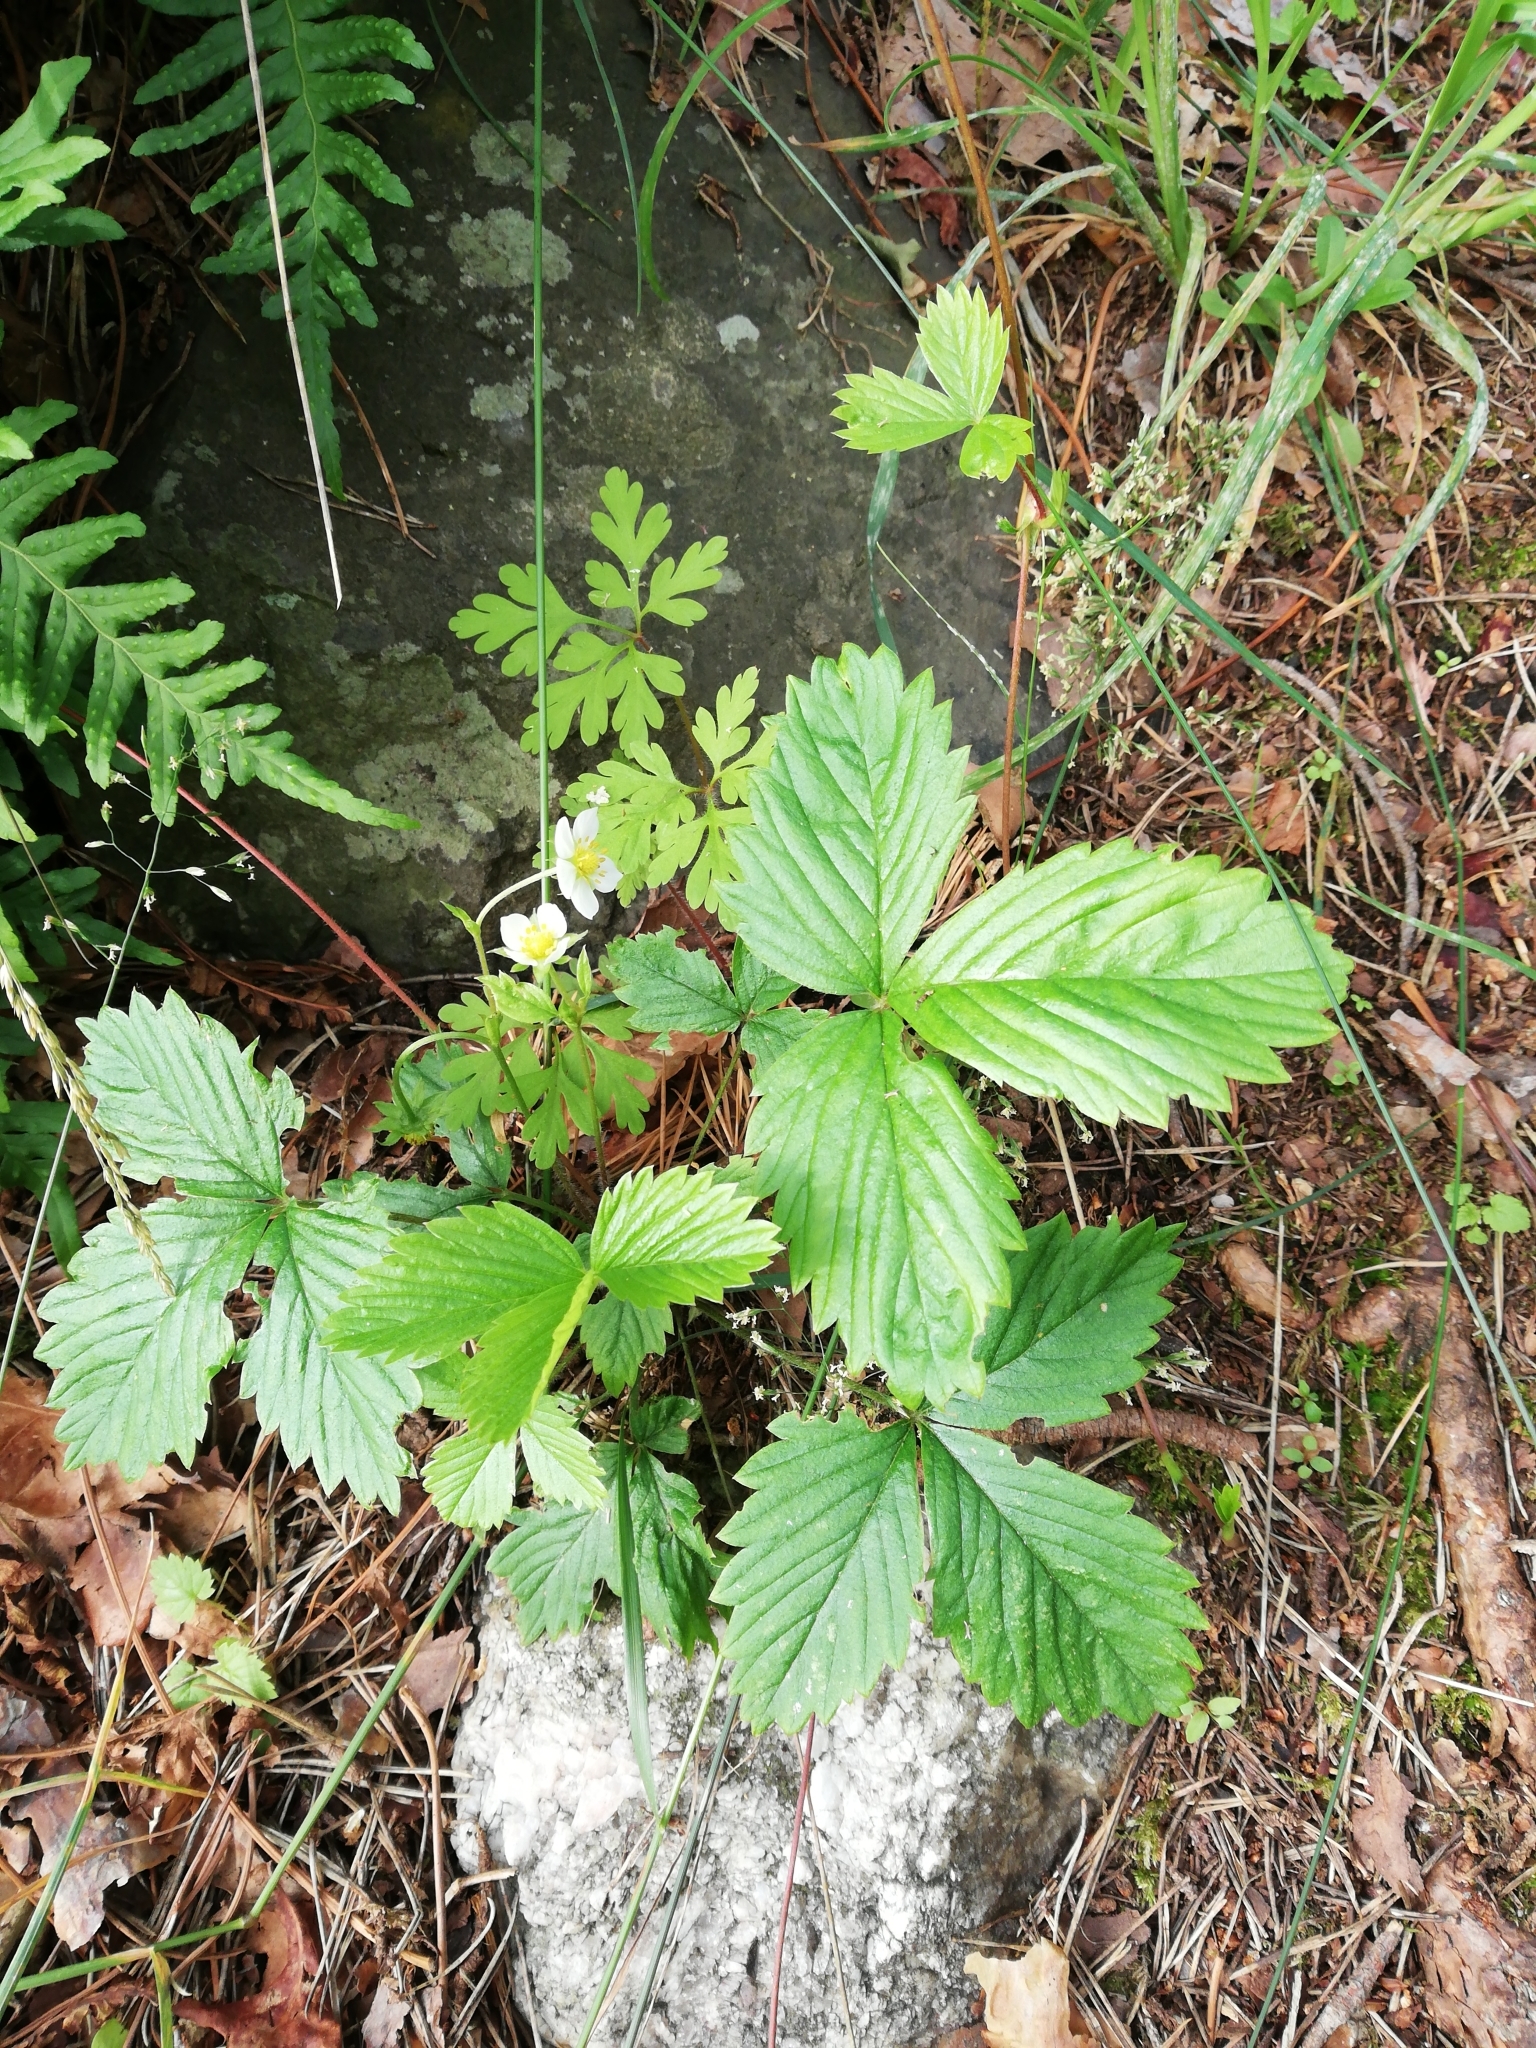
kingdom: Plantae
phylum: Tracheophyta
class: Magnoliopsida
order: Rosales
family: Rosaceae
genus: Fragaria
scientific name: Fragaria vesca
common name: Wild strawberry
